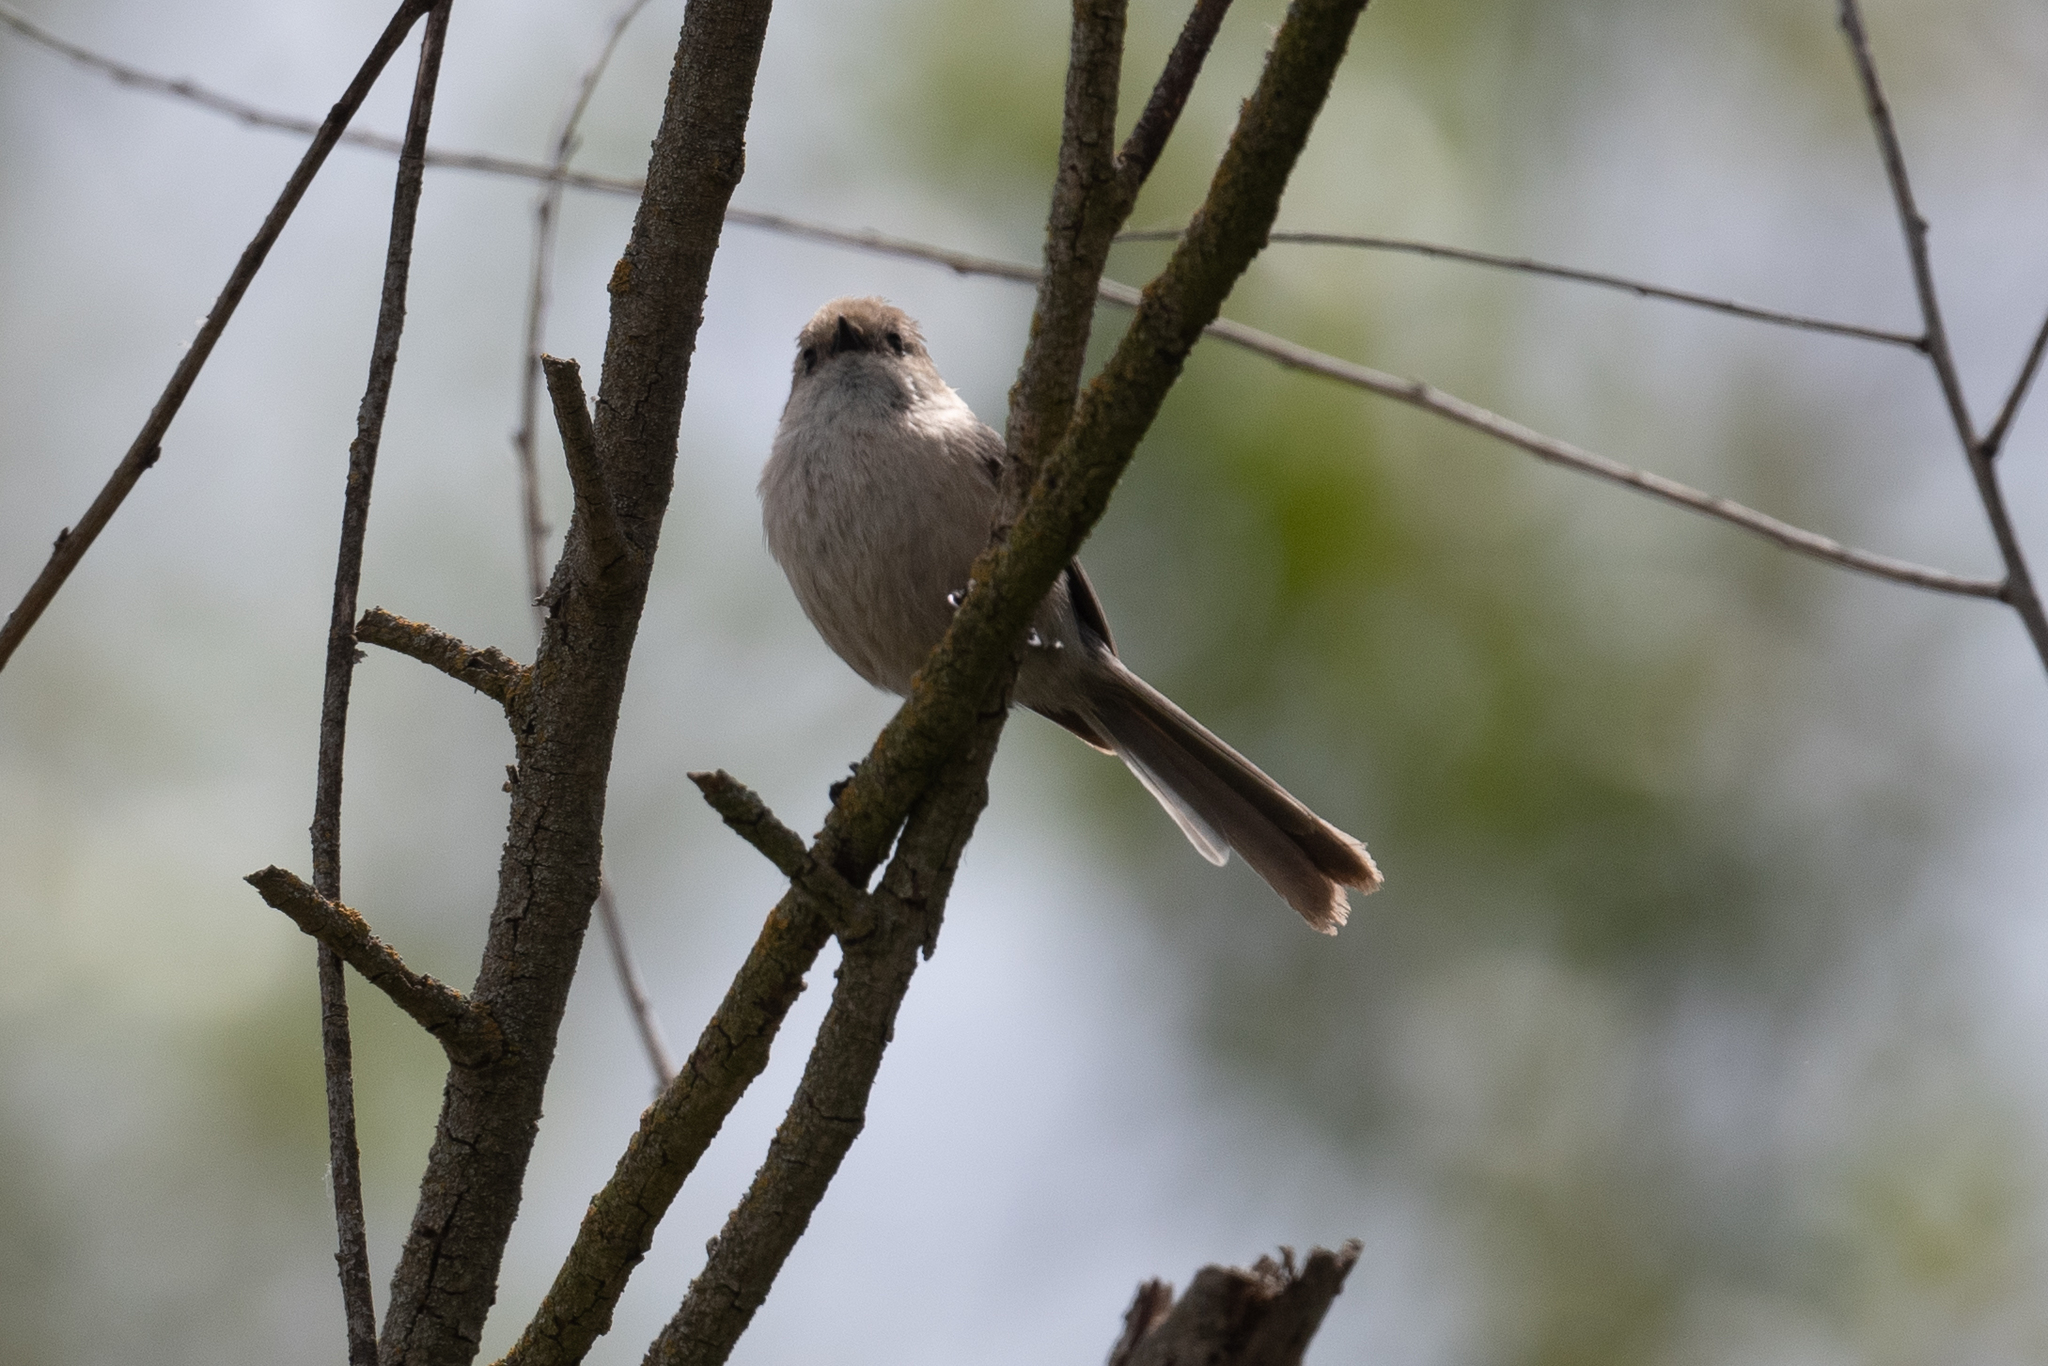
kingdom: Animalia
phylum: Chordata
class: Aves
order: Passeriformes
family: Aegithalidae
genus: Psaltriparus
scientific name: Psaltriparus minimus
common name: American bushtit
